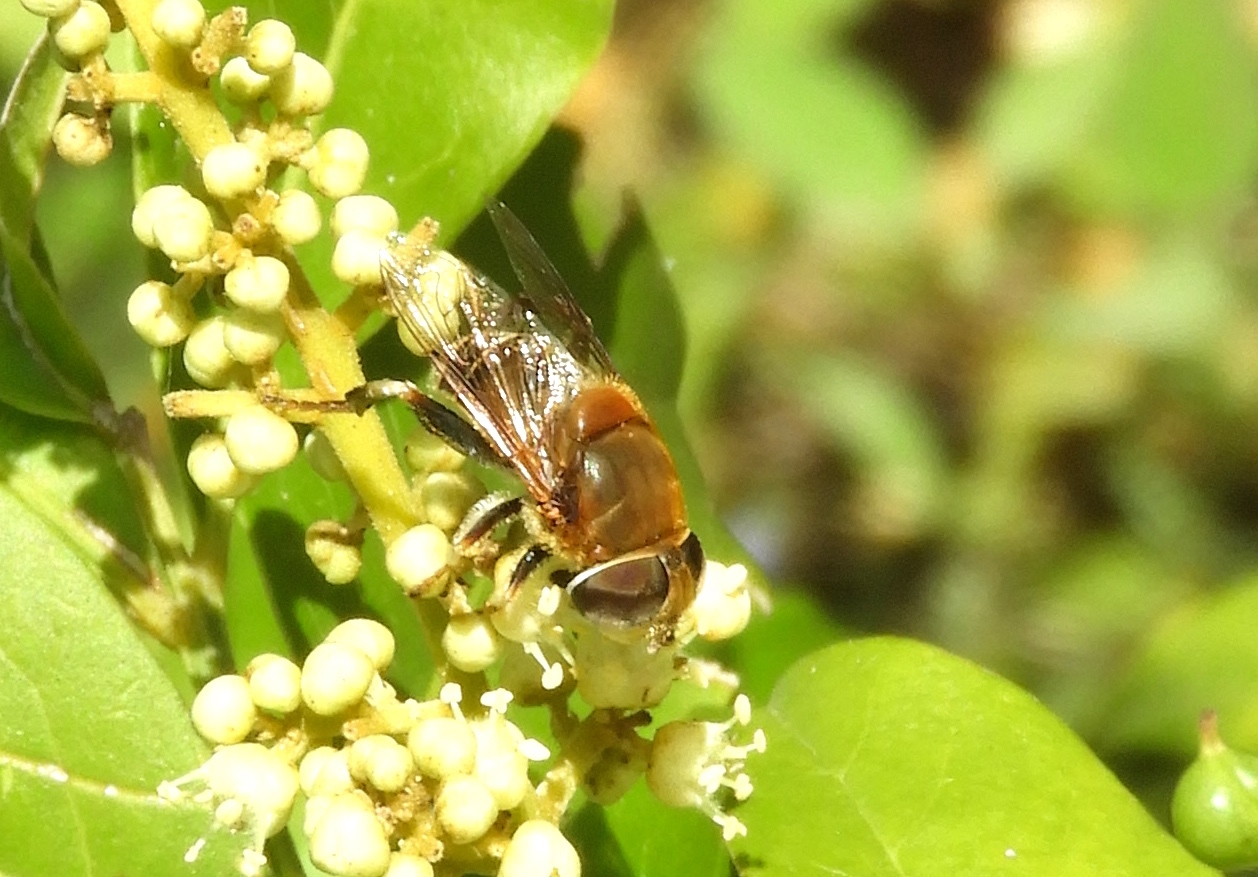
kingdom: Animalia
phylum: Arthropoda
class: Insecta
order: Diptera
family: Syrphidae
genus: Palpada
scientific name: Palpada
